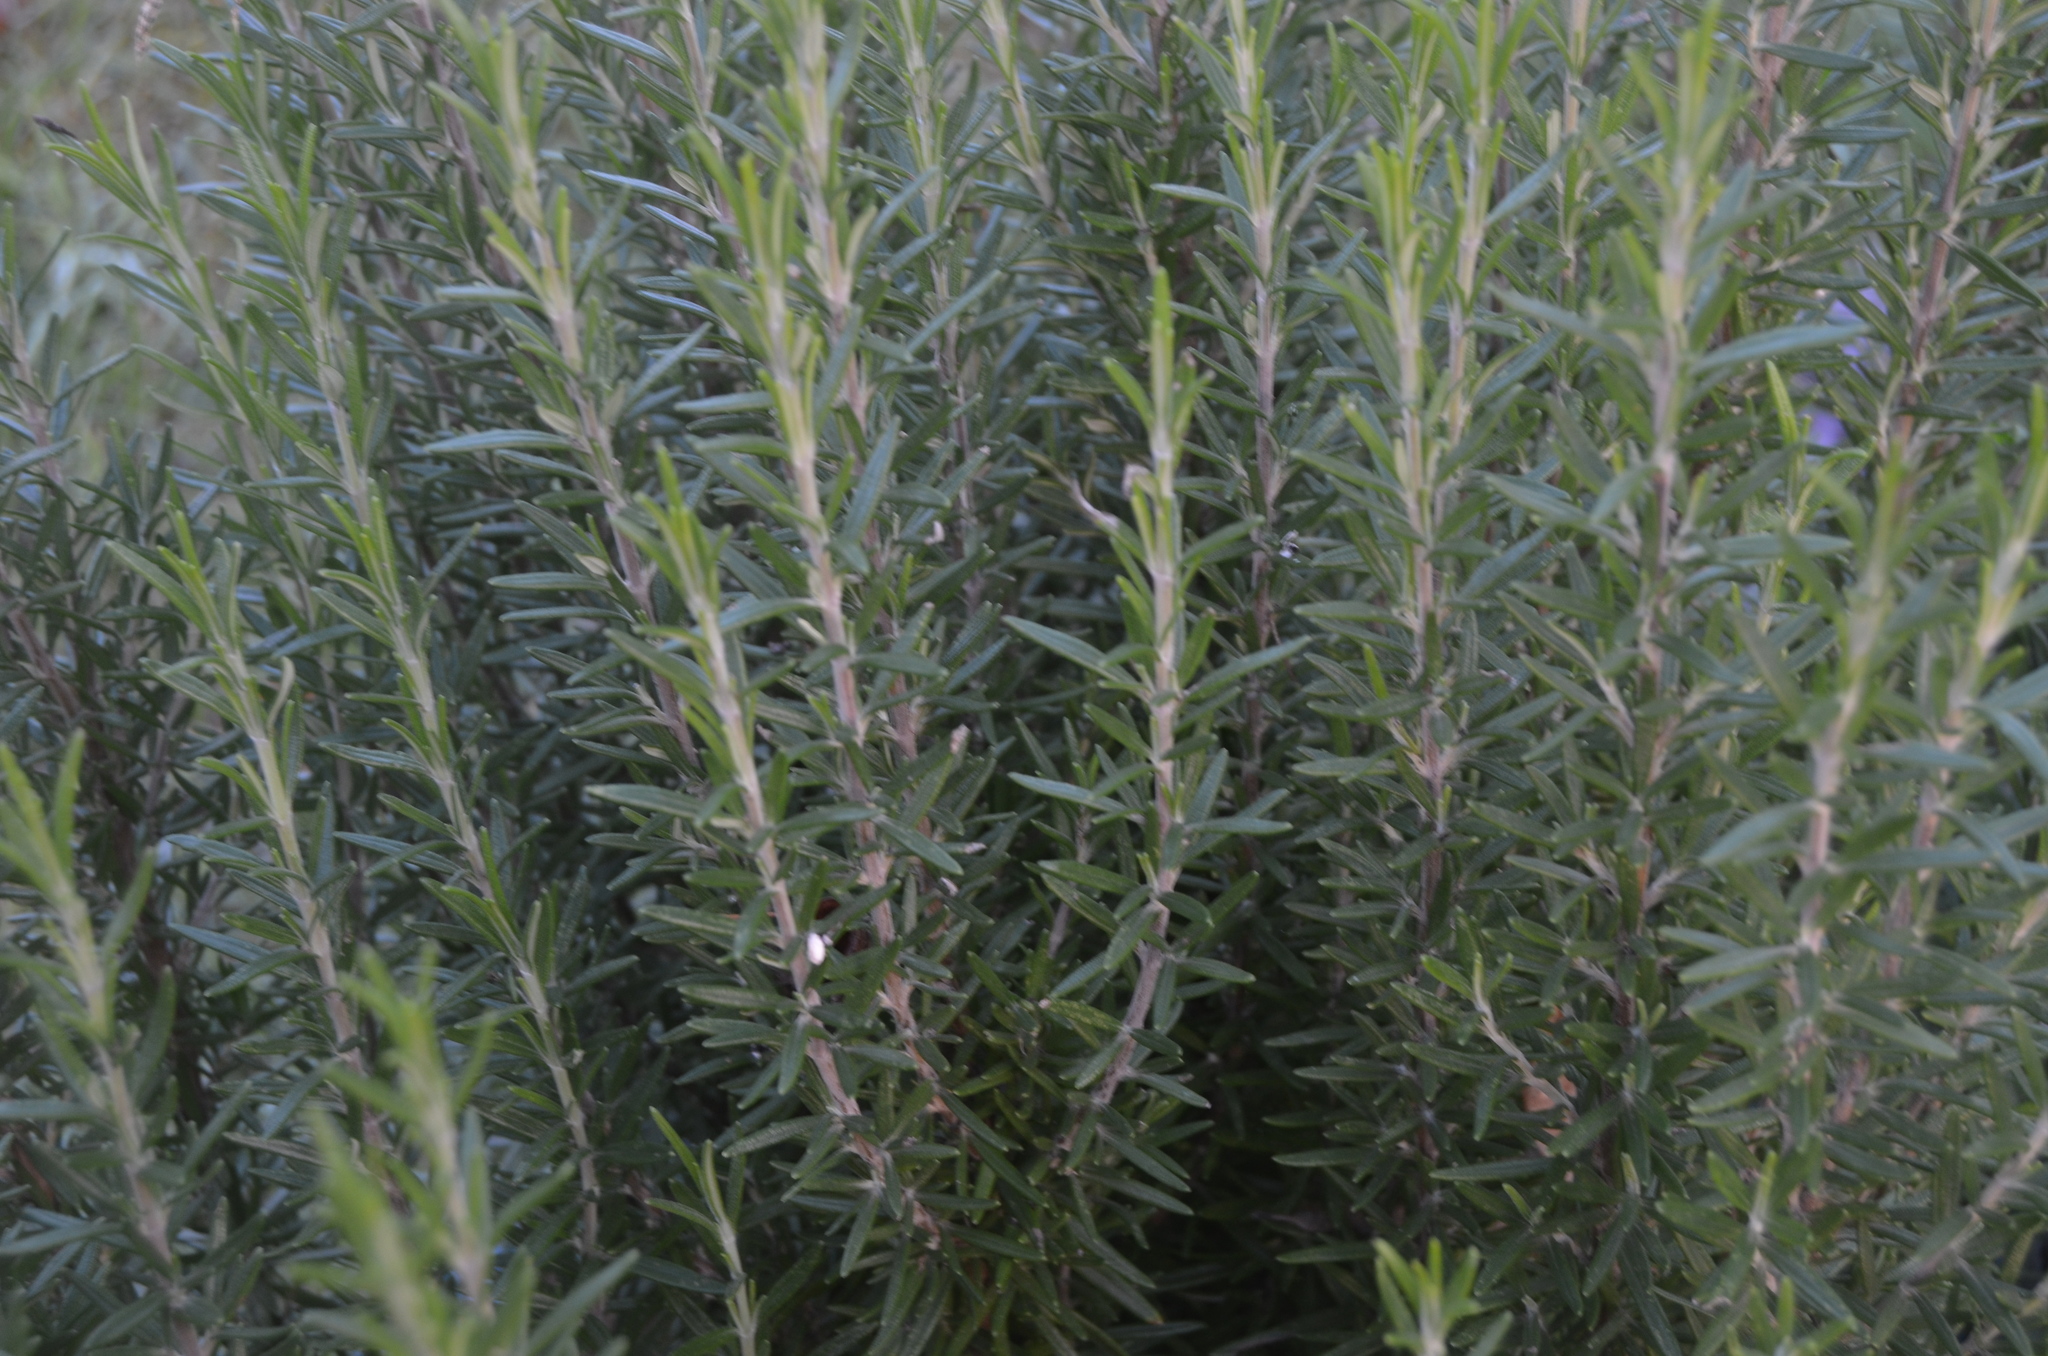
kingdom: Plantae
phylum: Tracheophyta
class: Magnoliopsida
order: Lamiales
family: Lamiaceae
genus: Salvia
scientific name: Salvia rosmarinus
